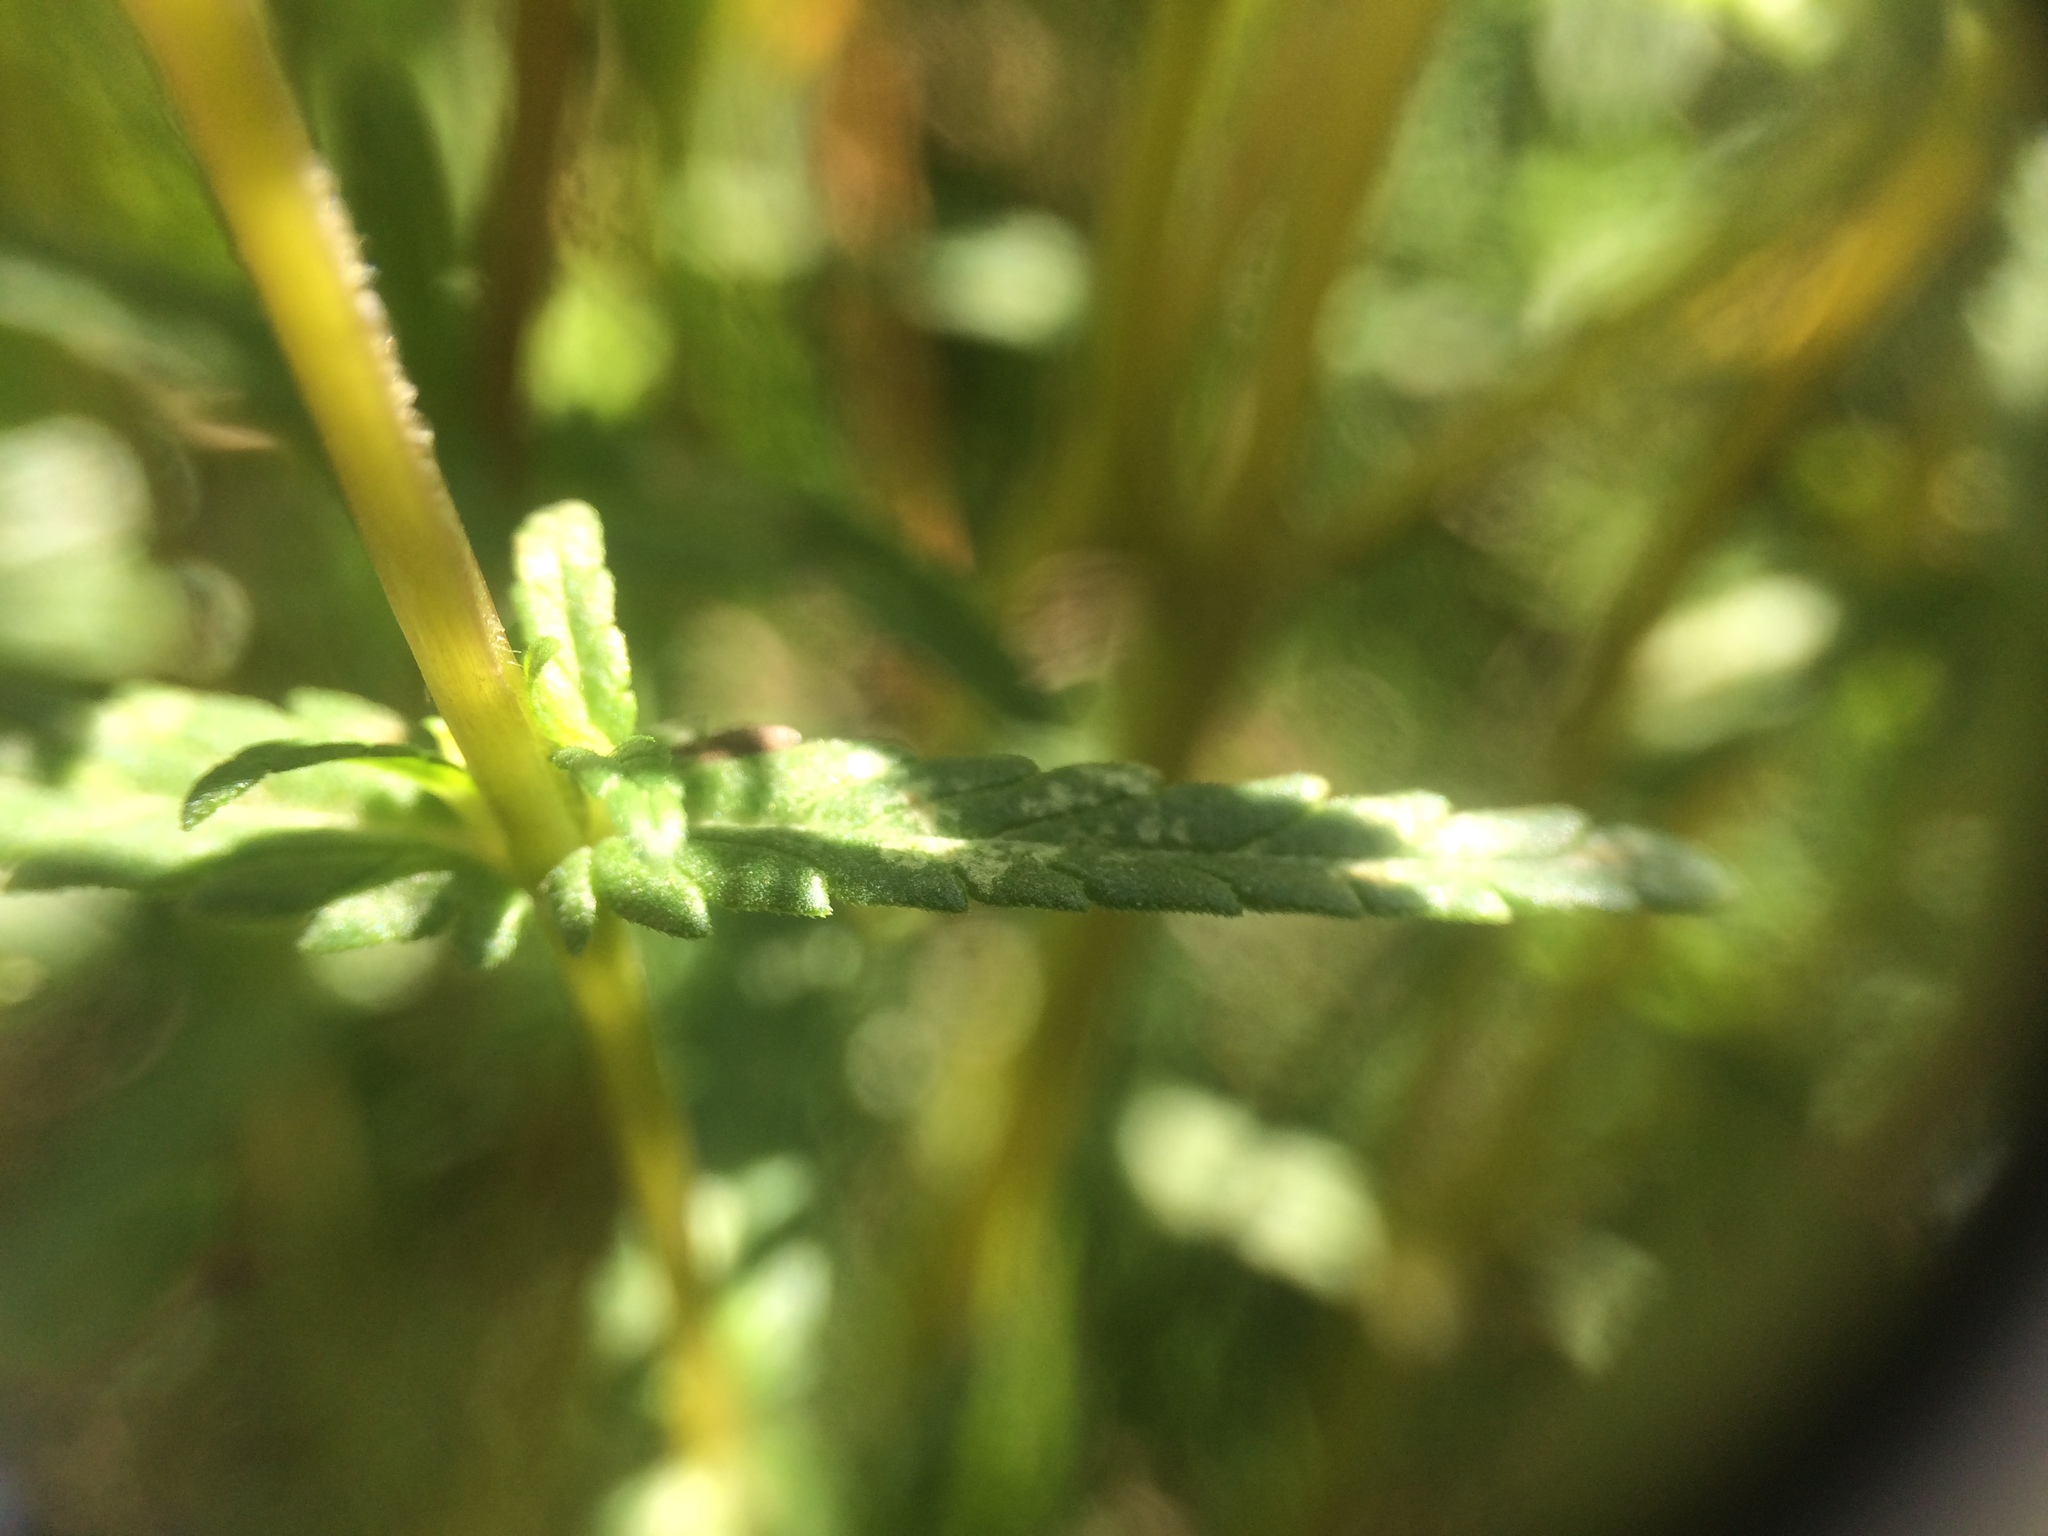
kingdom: Plantae
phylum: Tracheophyta
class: Magnoliopsida
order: Lamiales
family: Orobanchaceae
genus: Rhinanthus
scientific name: Rhinanthus minor
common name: Yellow-rattle
